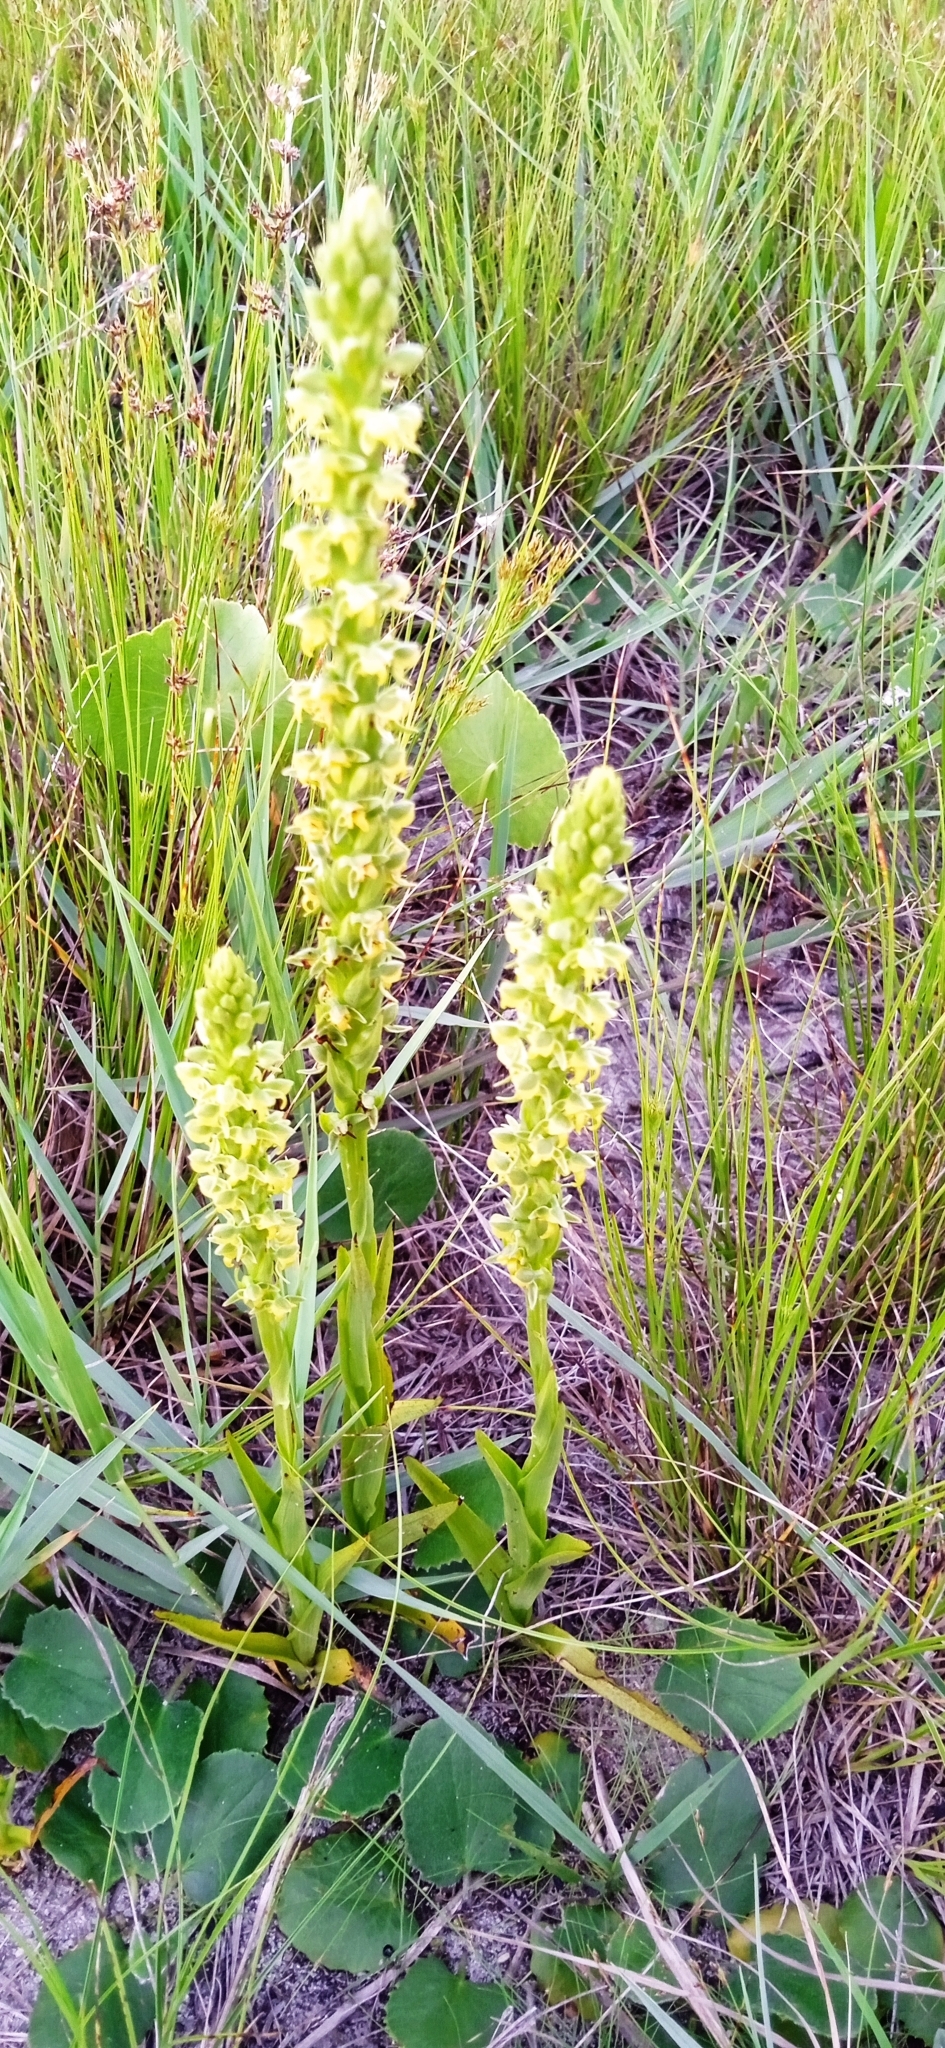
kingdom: Plantae
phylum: Tracheophyta
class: Liliopsida
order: Asparagales
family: Orchidaceae
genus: Habenaria
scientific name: Habenaria parviflora
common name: Small flowered habenaria
